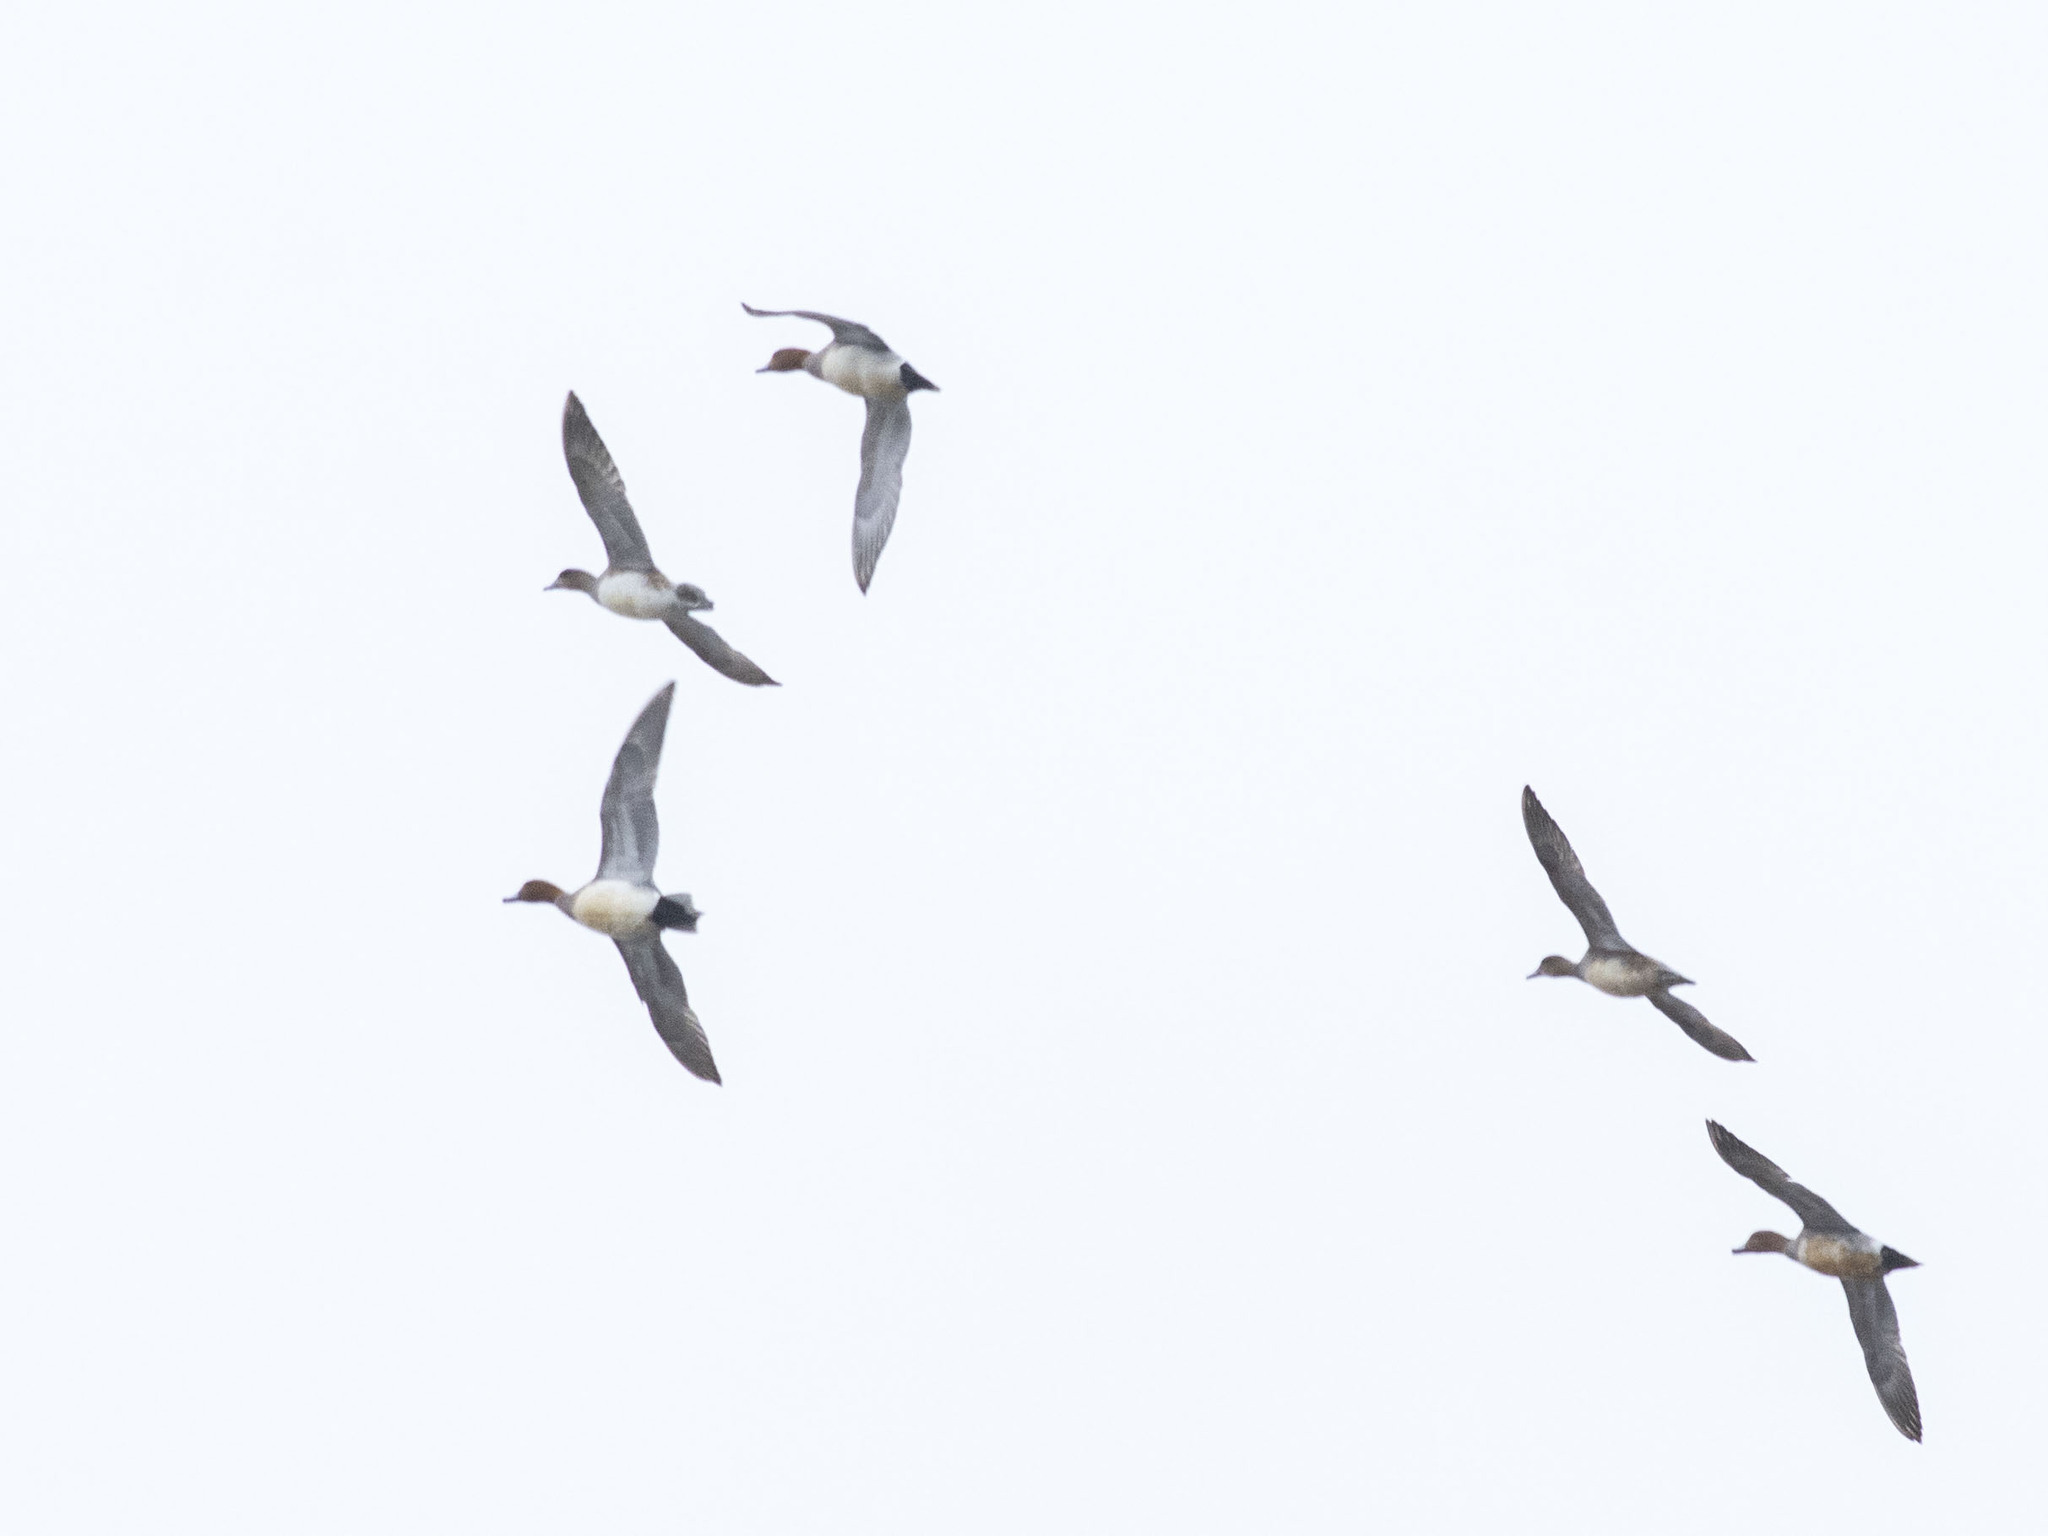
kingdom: Animalia
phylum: Chordata
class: Aves
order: Anseriformes
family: Anatidae
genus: Mareca
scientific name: Mareca penelope
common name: Eurasian wigeon
